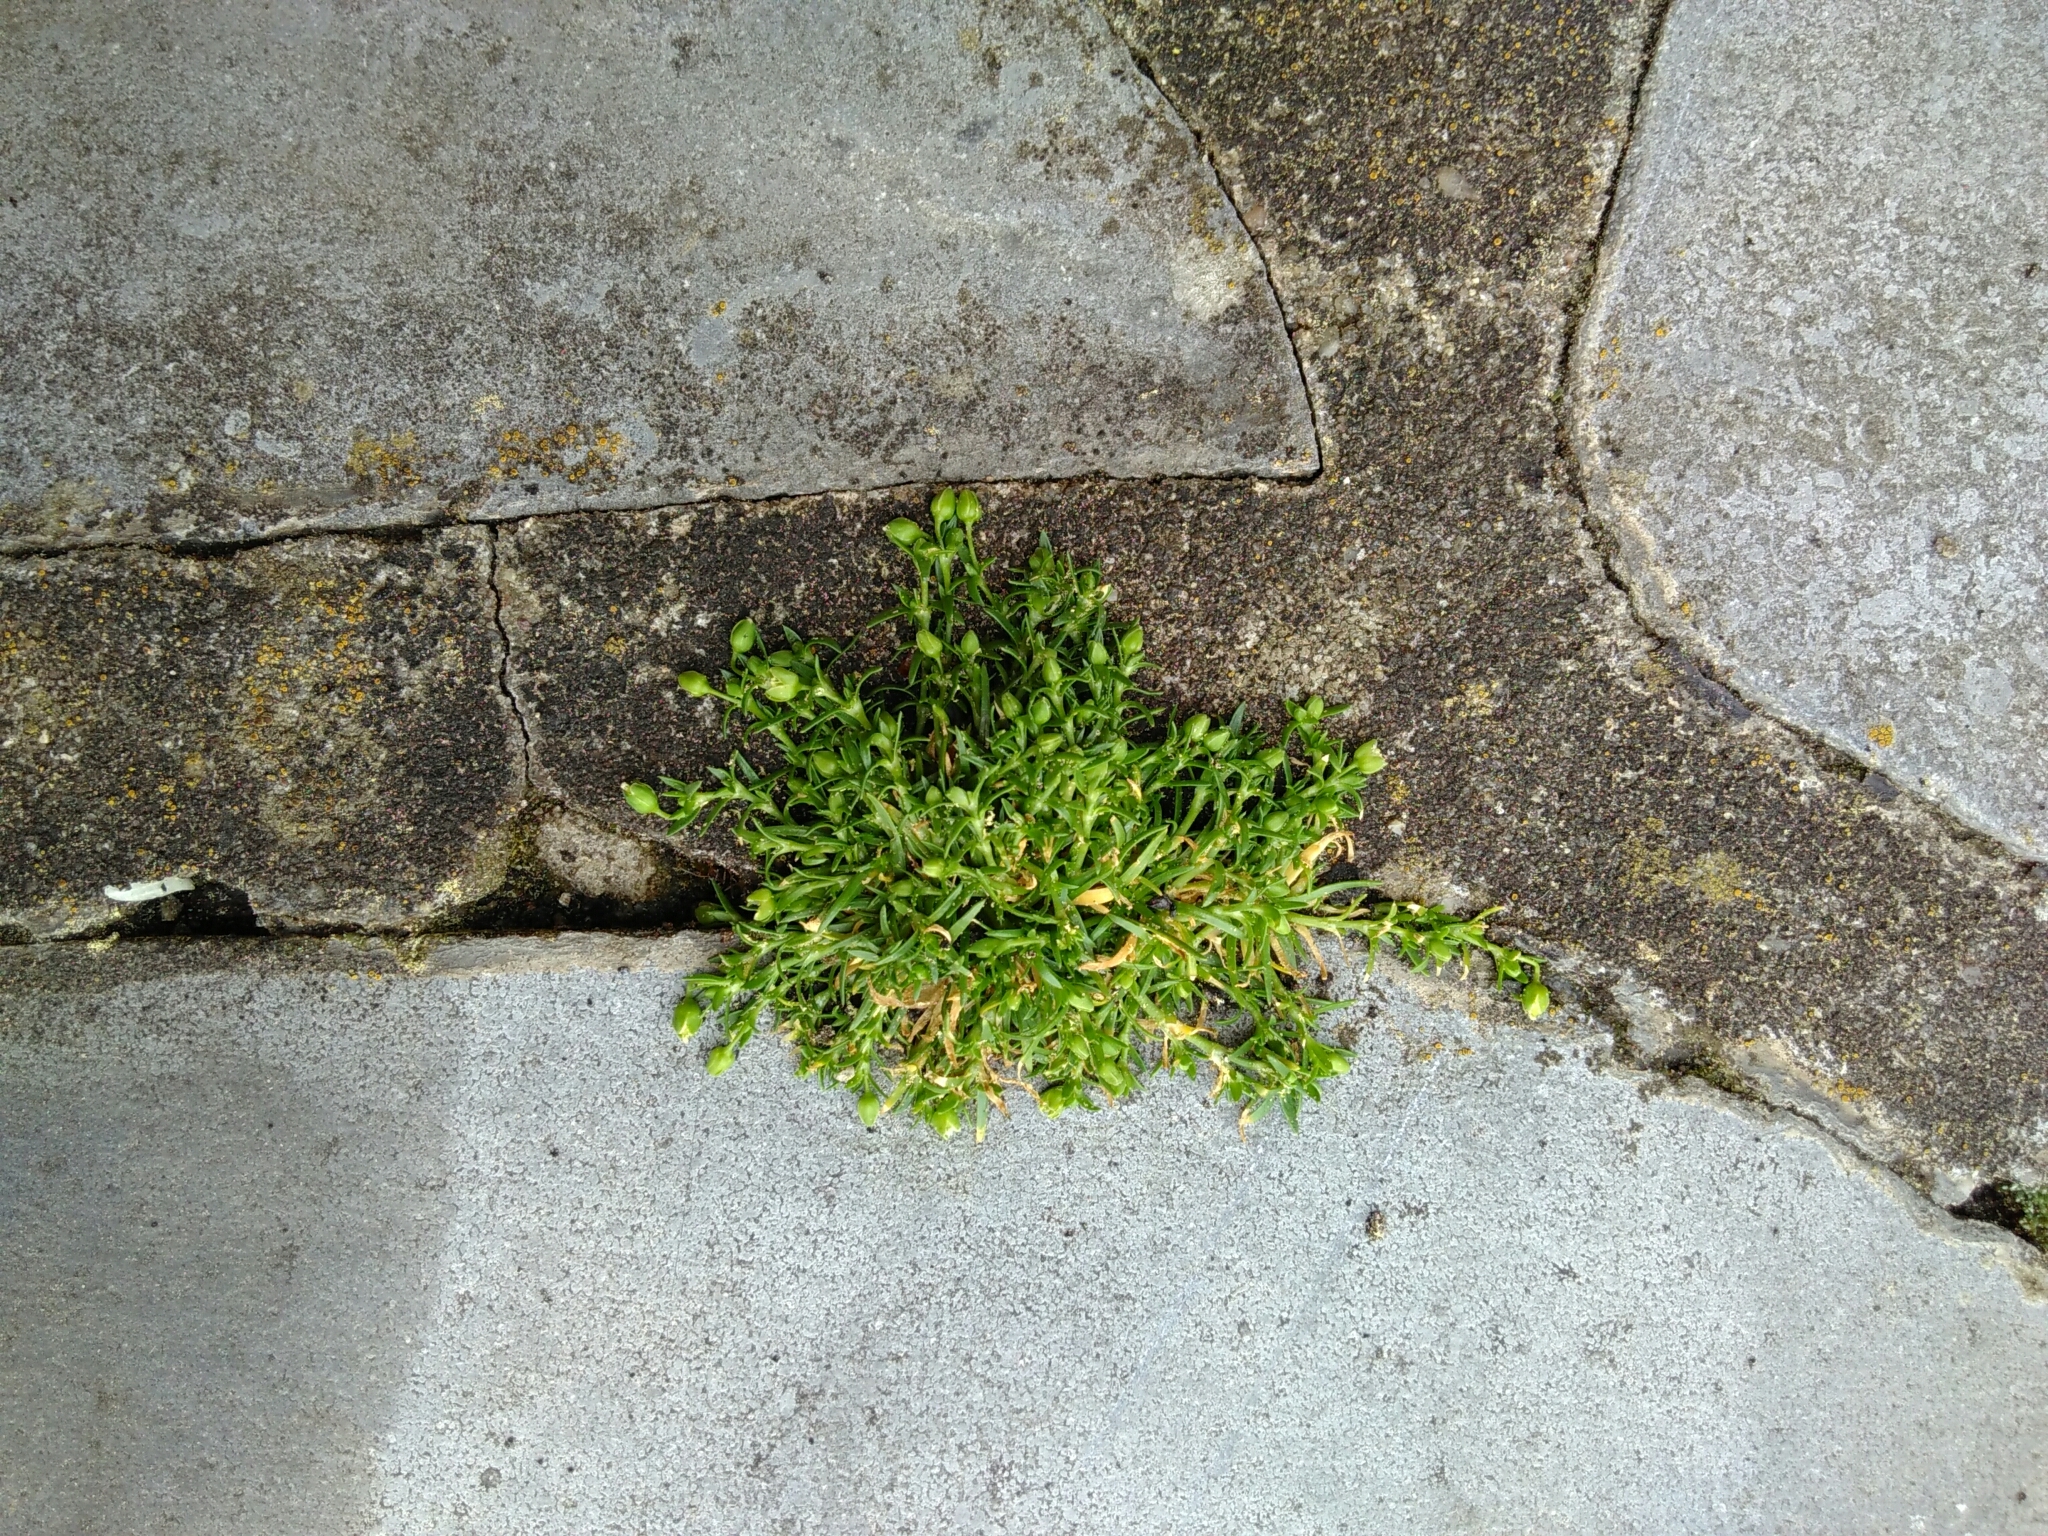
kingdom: Plantae
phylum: Tracheophyta
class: Magnoliopsida
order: Caryophyllales
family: Caryophyllaceae
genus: Sagina
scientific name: Sagina procumbens
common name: Procumbent pearlwort
